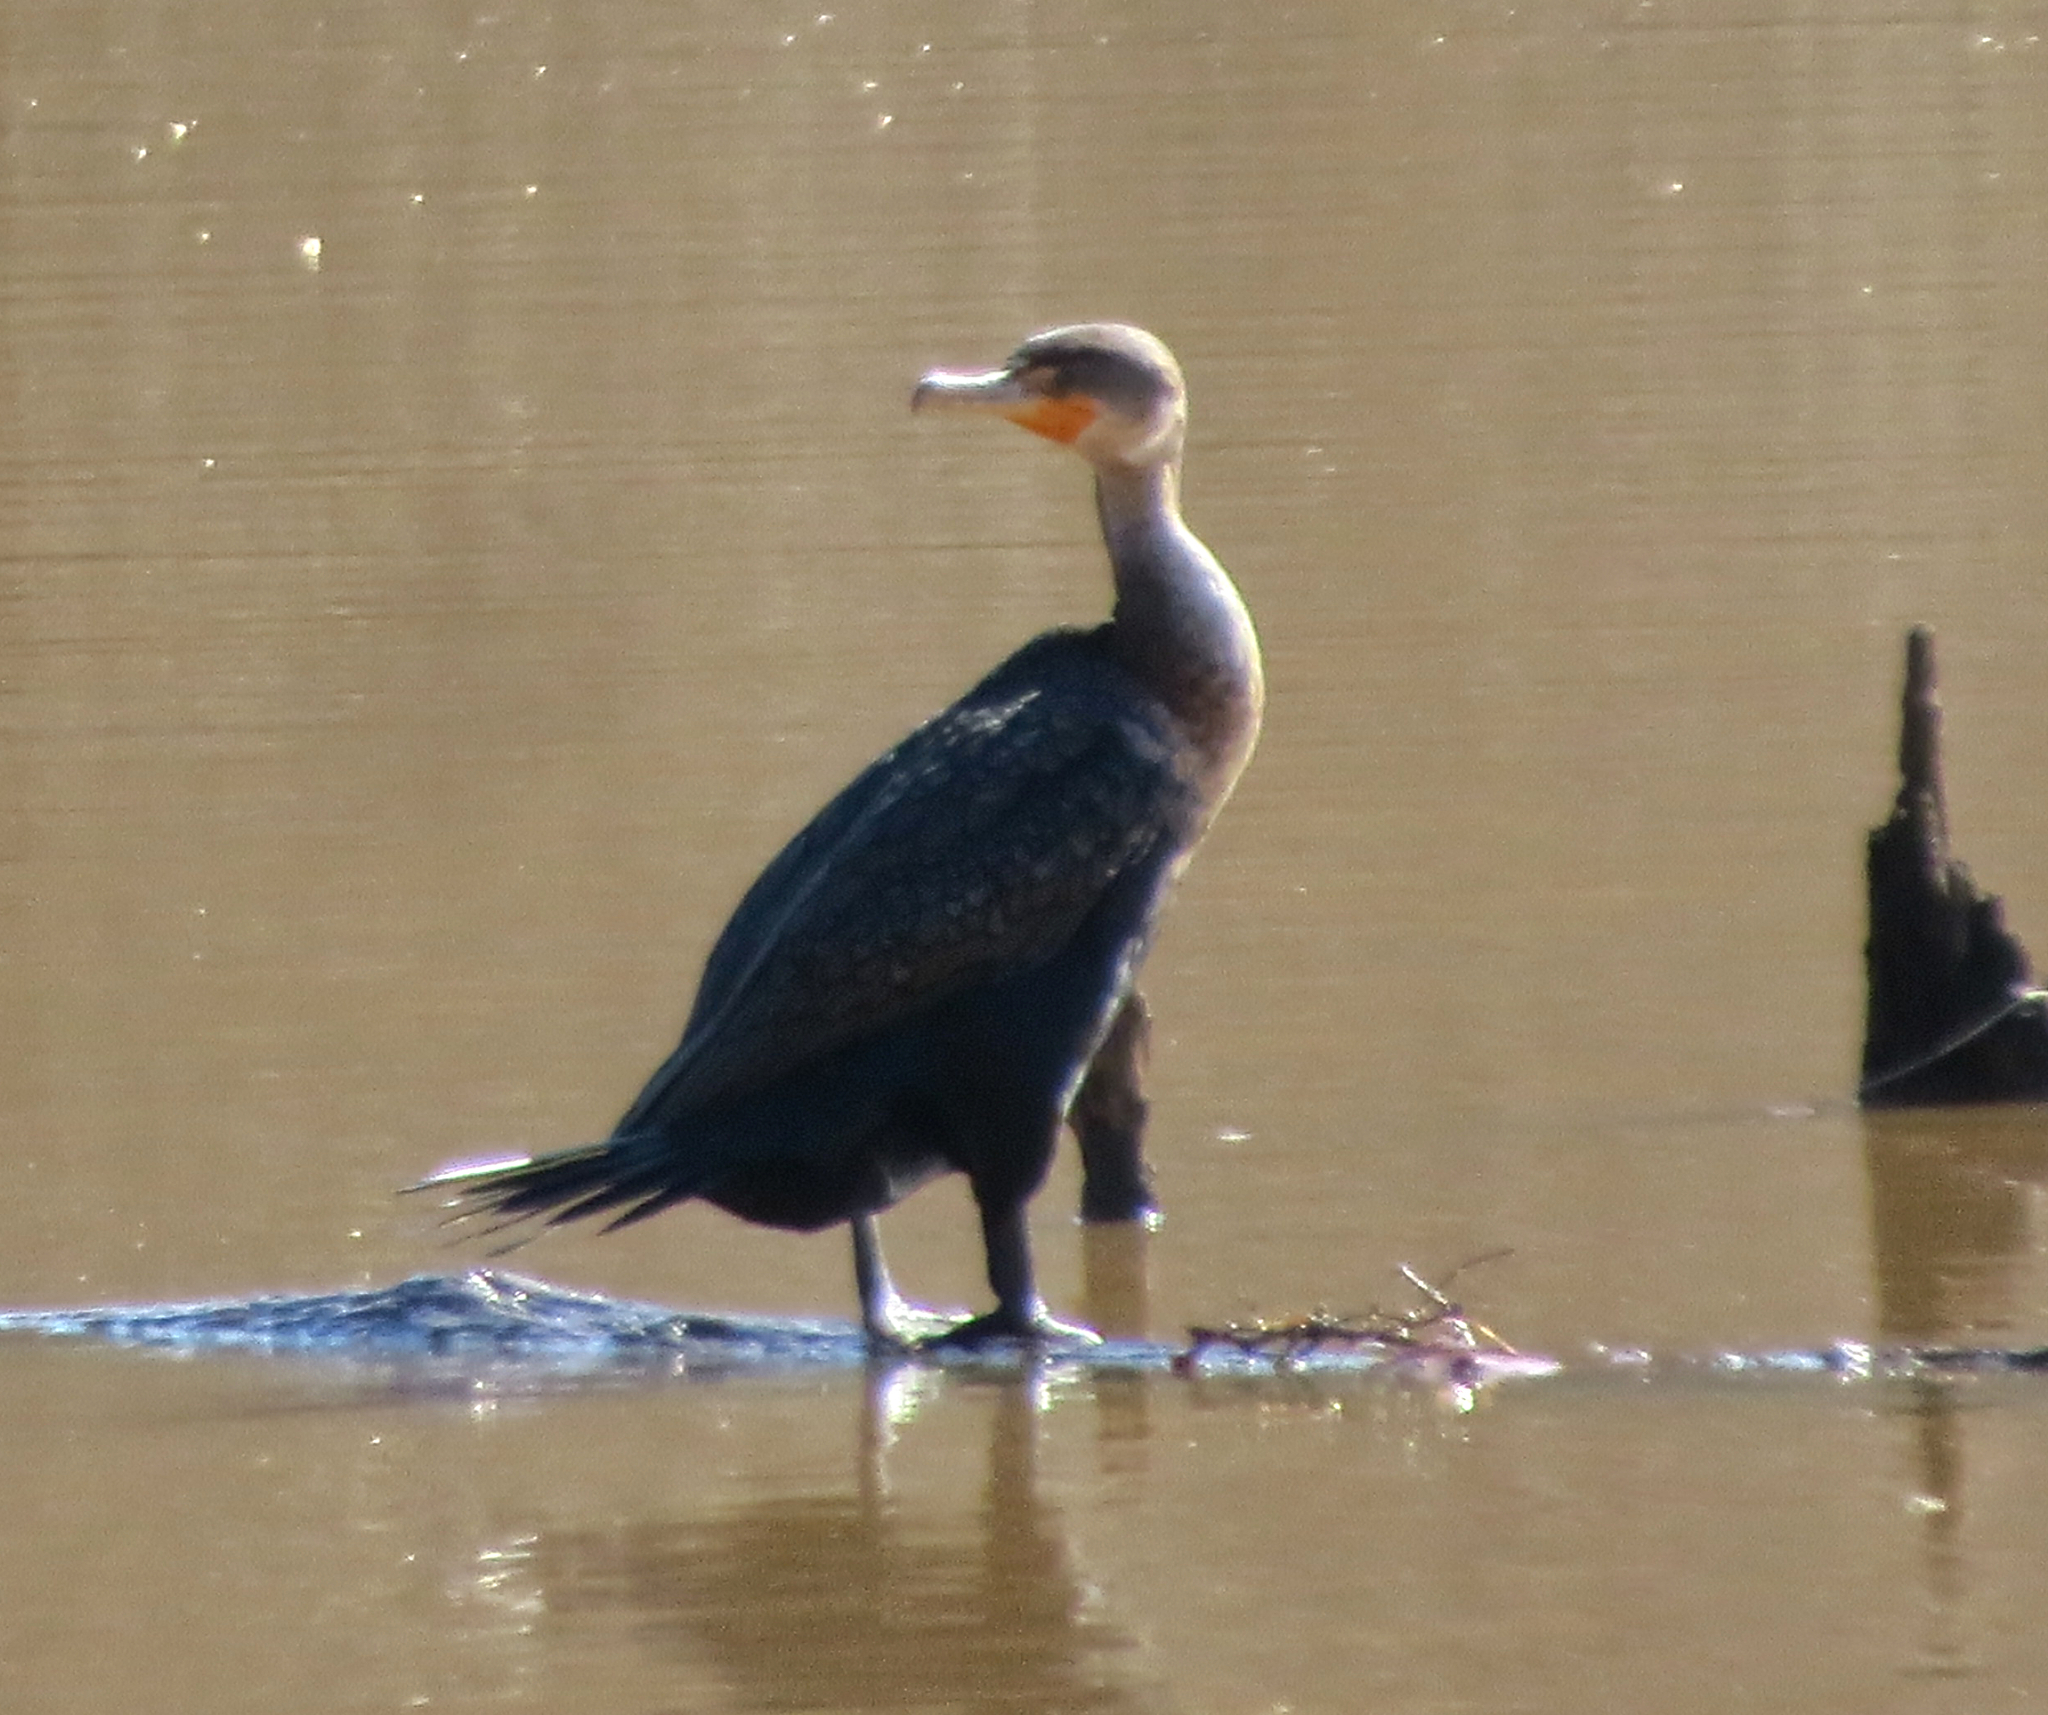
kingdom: Animalia
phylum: Chordata
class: Aves
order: Suliformes
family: Phalacrocoracidae
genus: Phalacrocorax
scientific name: Phalacrocorax auritus
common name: Double-crested cormorant
